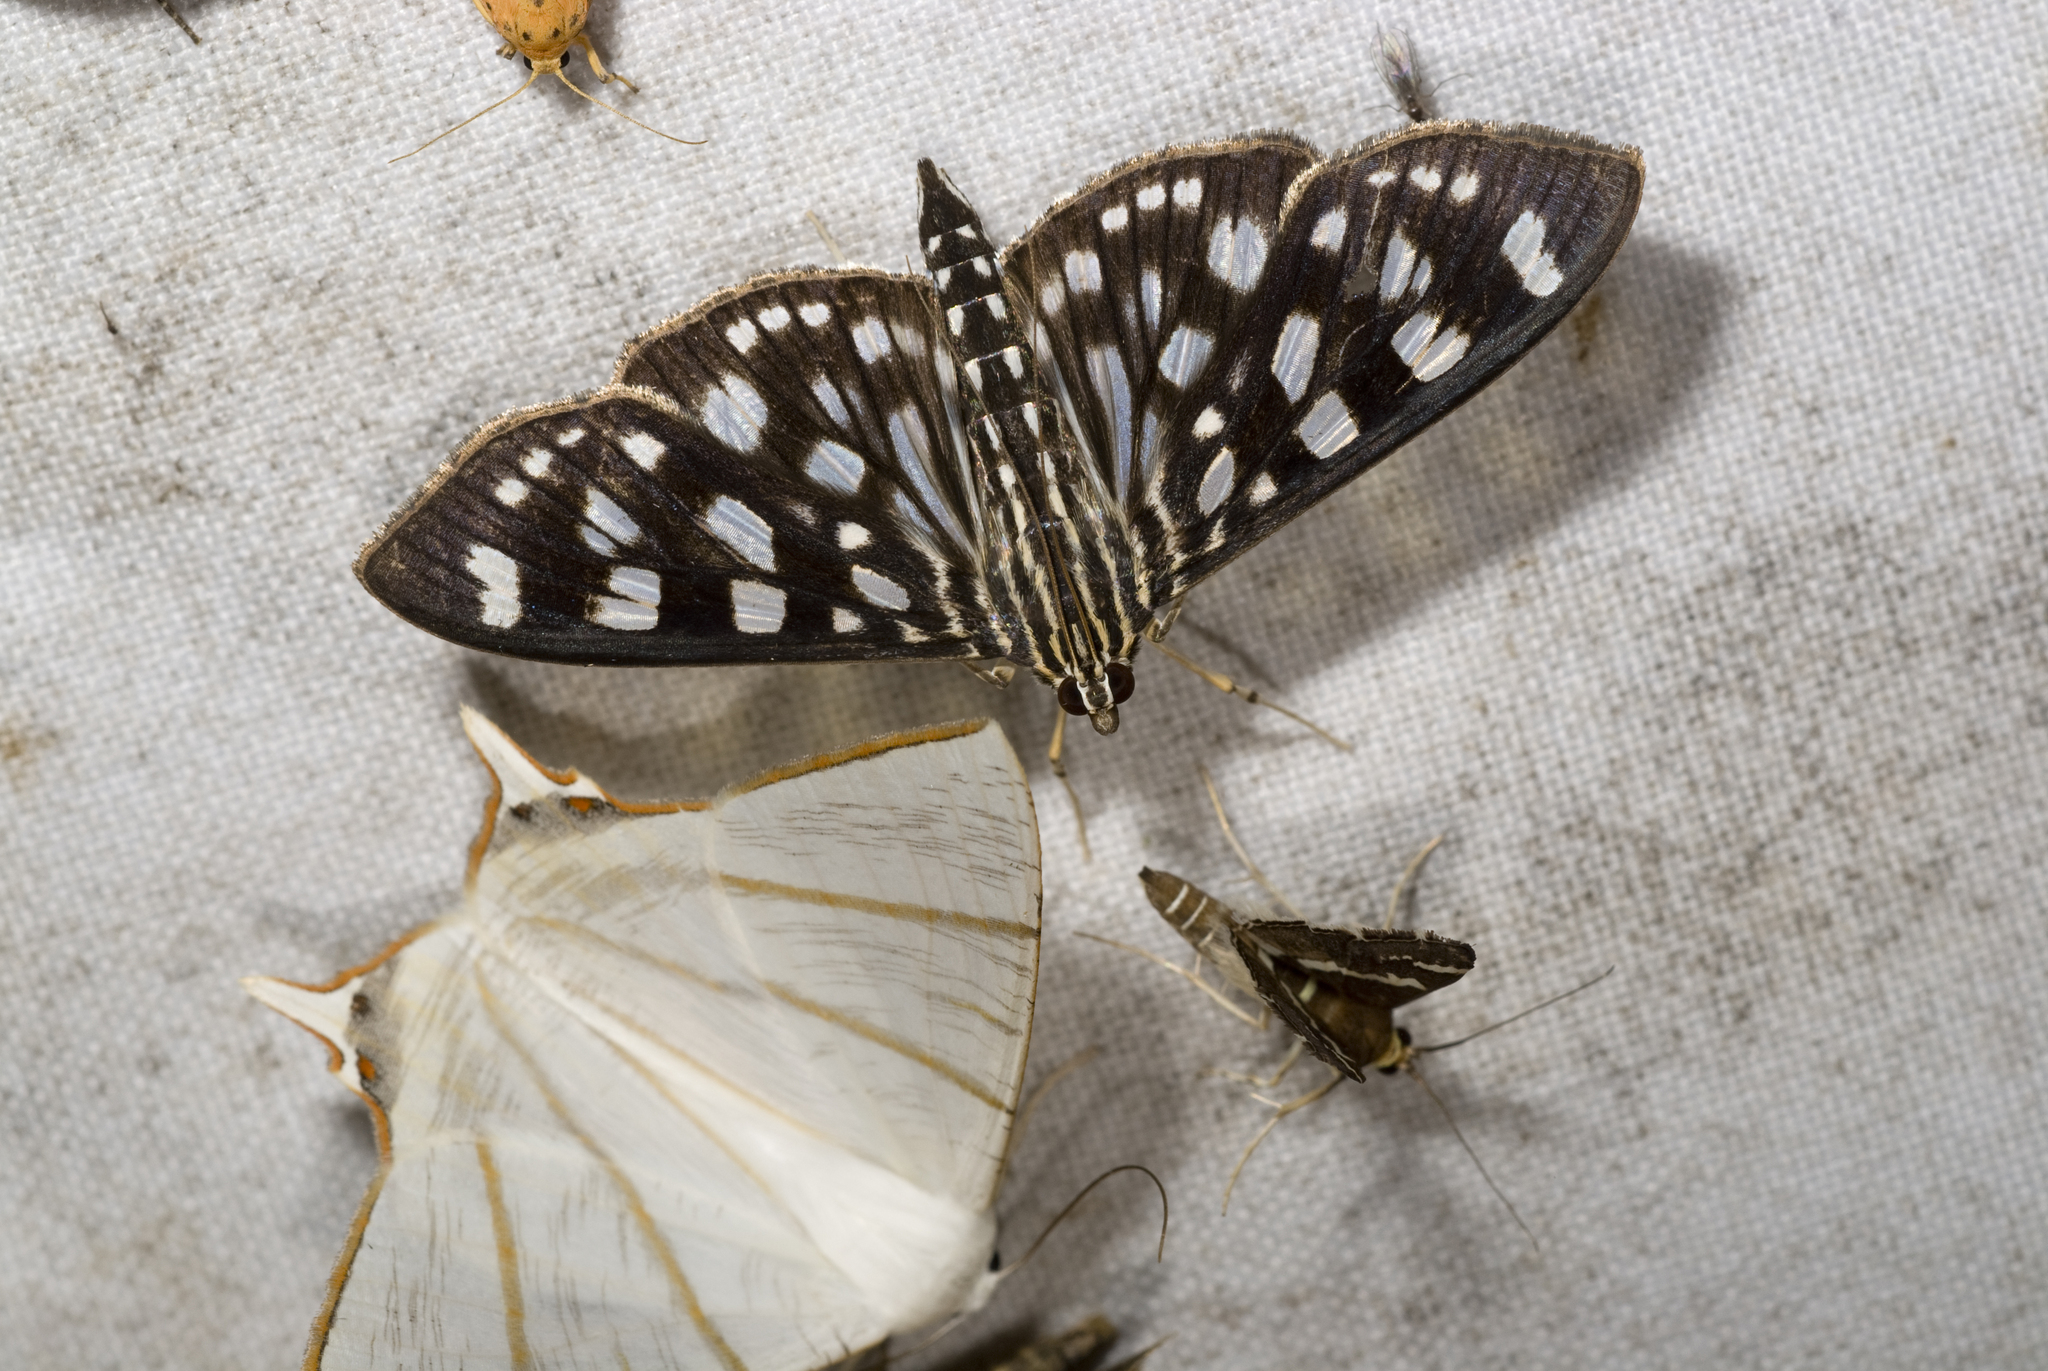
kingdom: Animalia
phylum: Arthropoda
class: Insecta
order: Lepidoptera
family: Crambidae
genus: Pygospila
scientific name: Pygospila tyres
